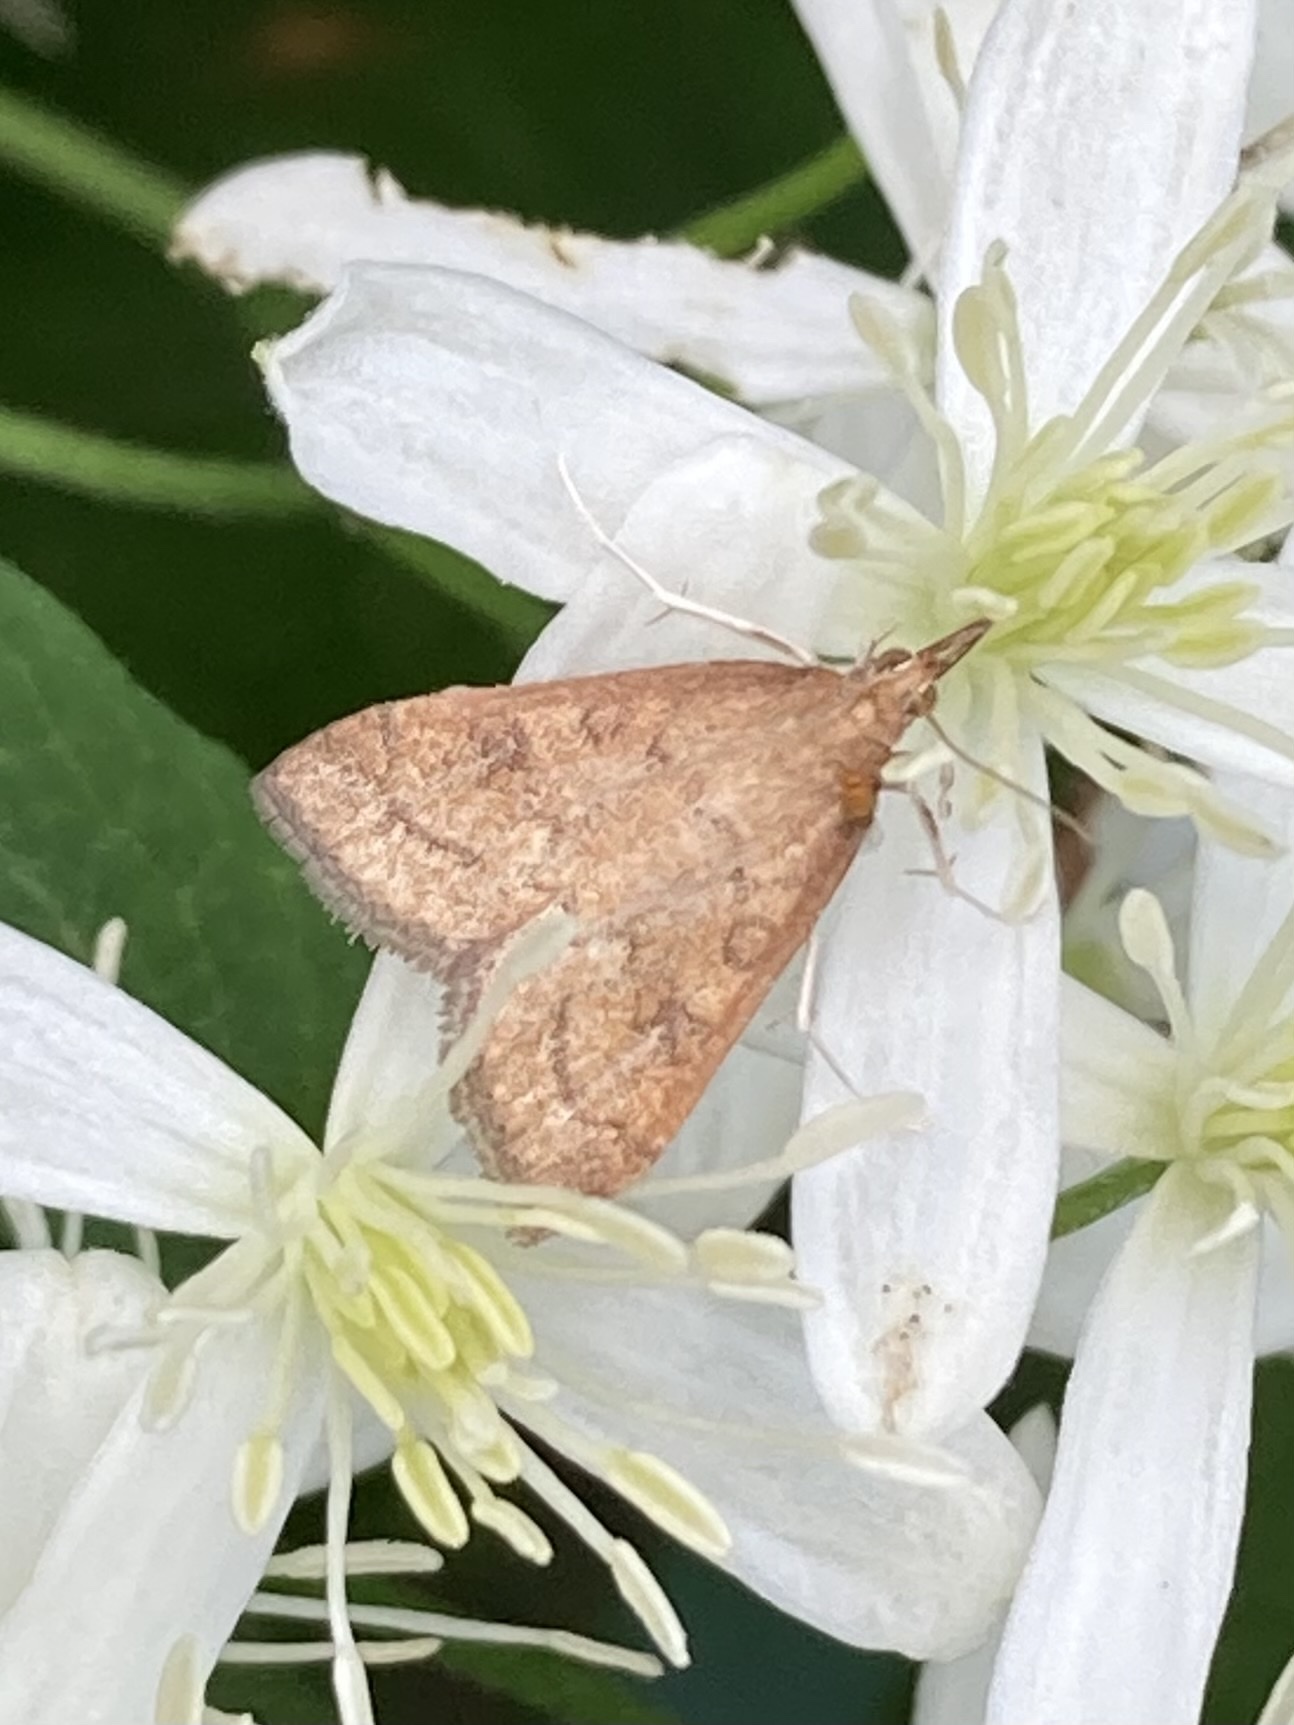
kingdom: Animalia
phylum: Arthropoda
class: Insecta
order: Lepidoptera
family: Crambidae
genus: Udea
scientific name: Udea rubigalis
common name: Celery leaftier moth
